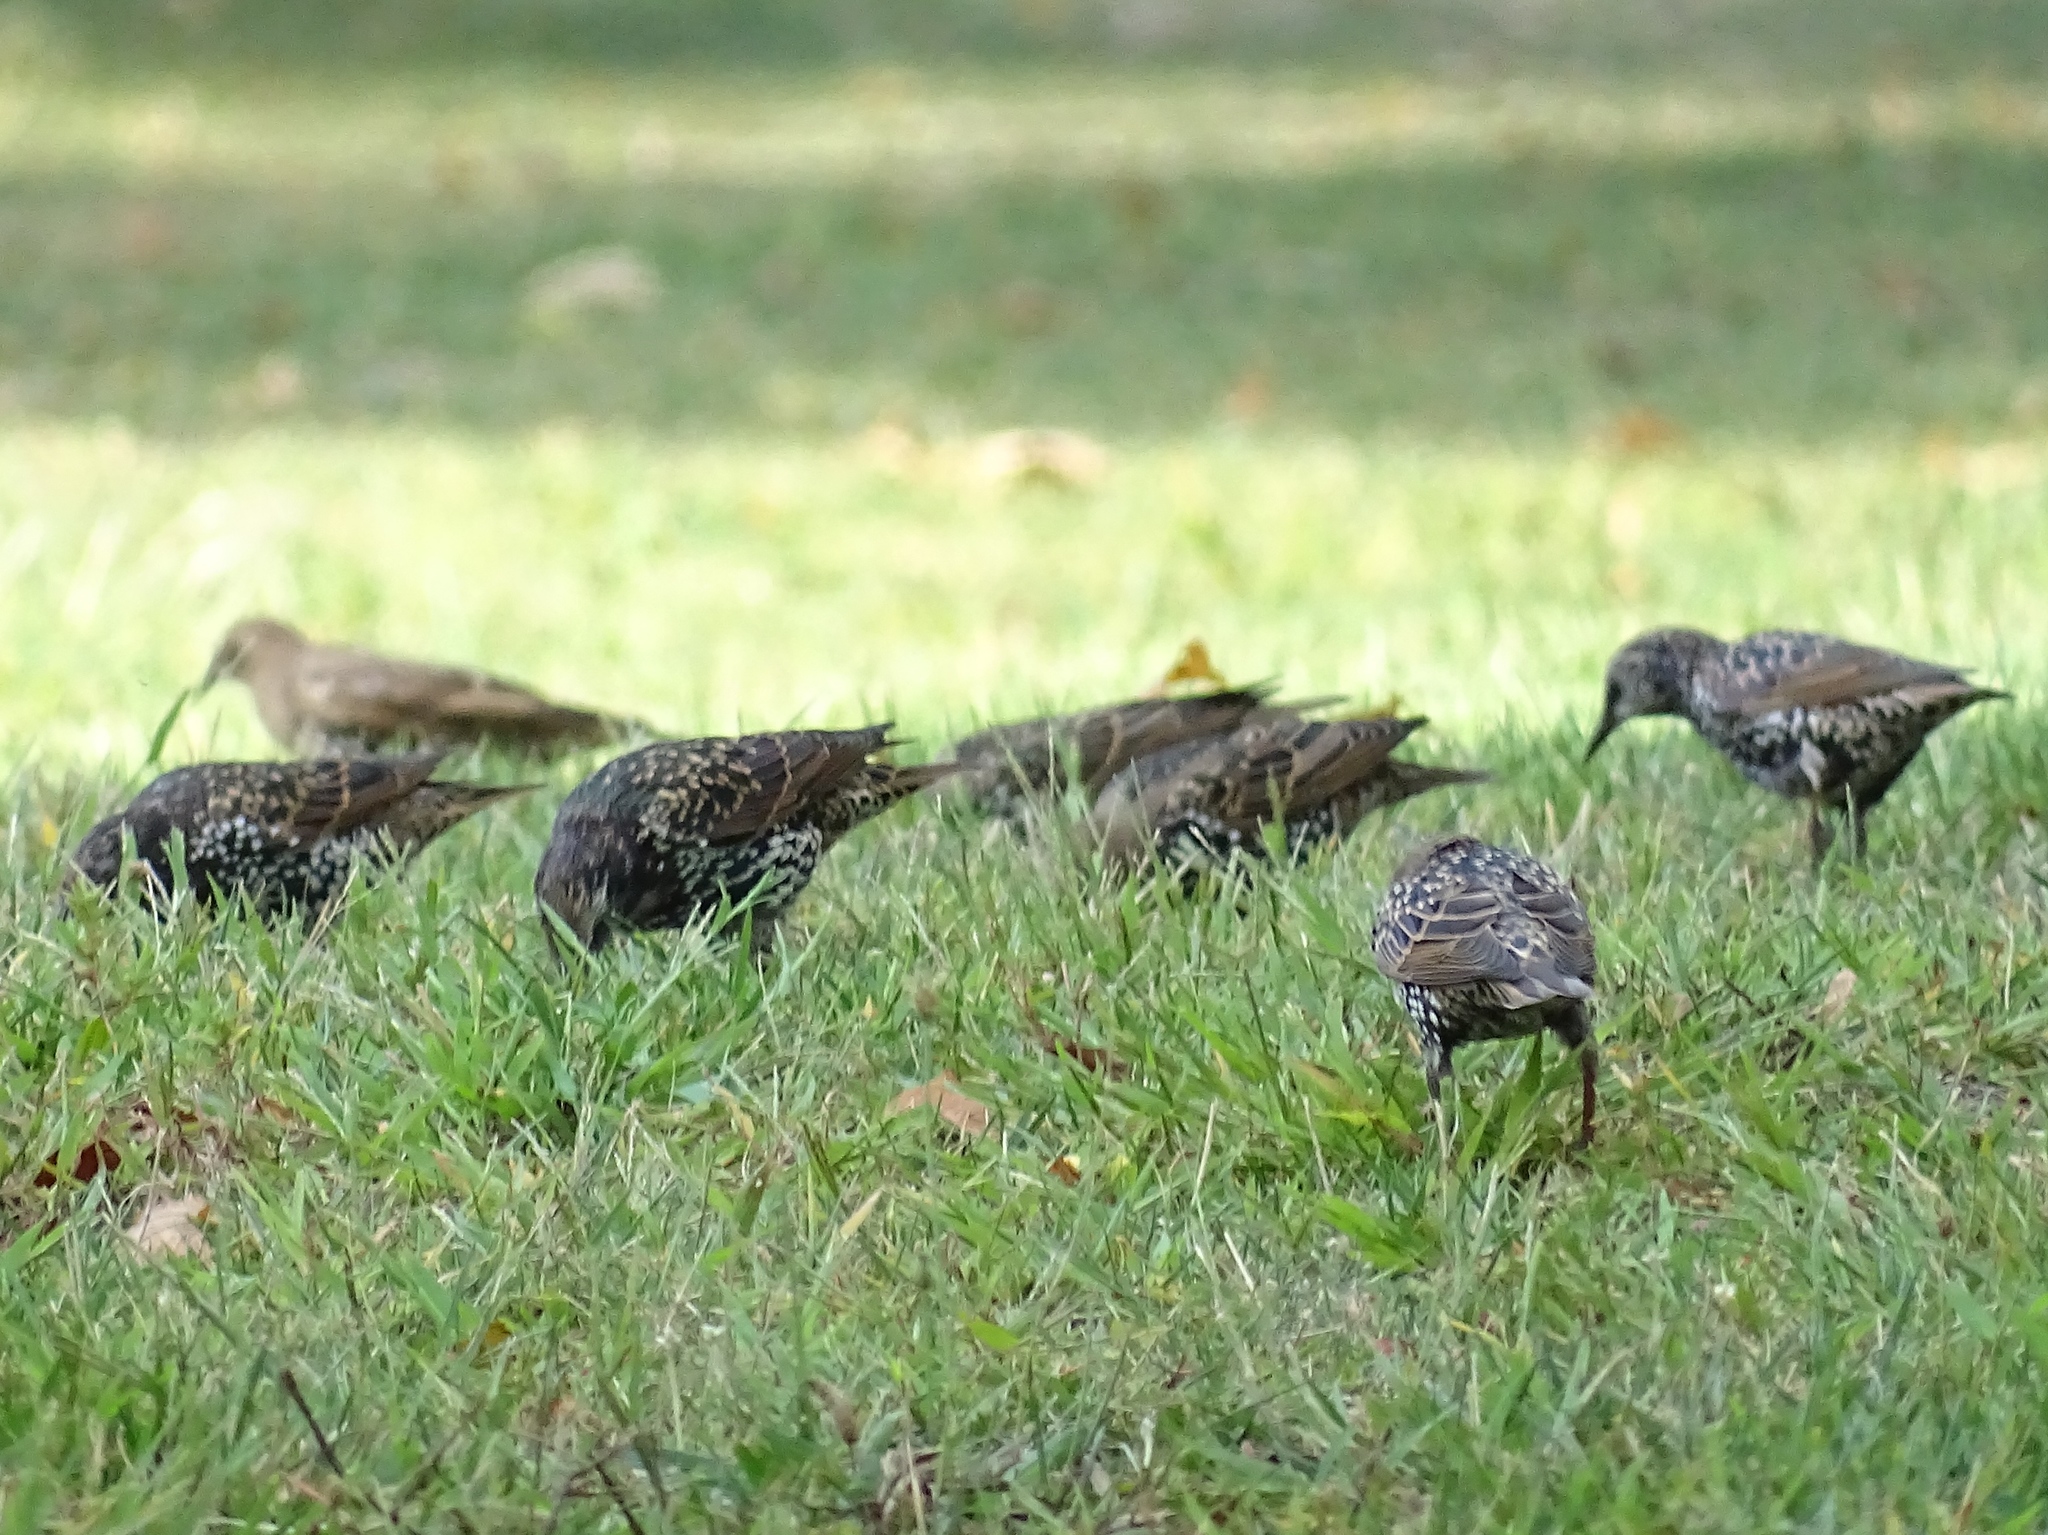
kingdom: Animalia
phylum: Chordata
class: Aves
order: Passeriformes
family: Sturnidae
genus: Sturnus
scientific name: Sturnus vulgaris
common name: Common starling
